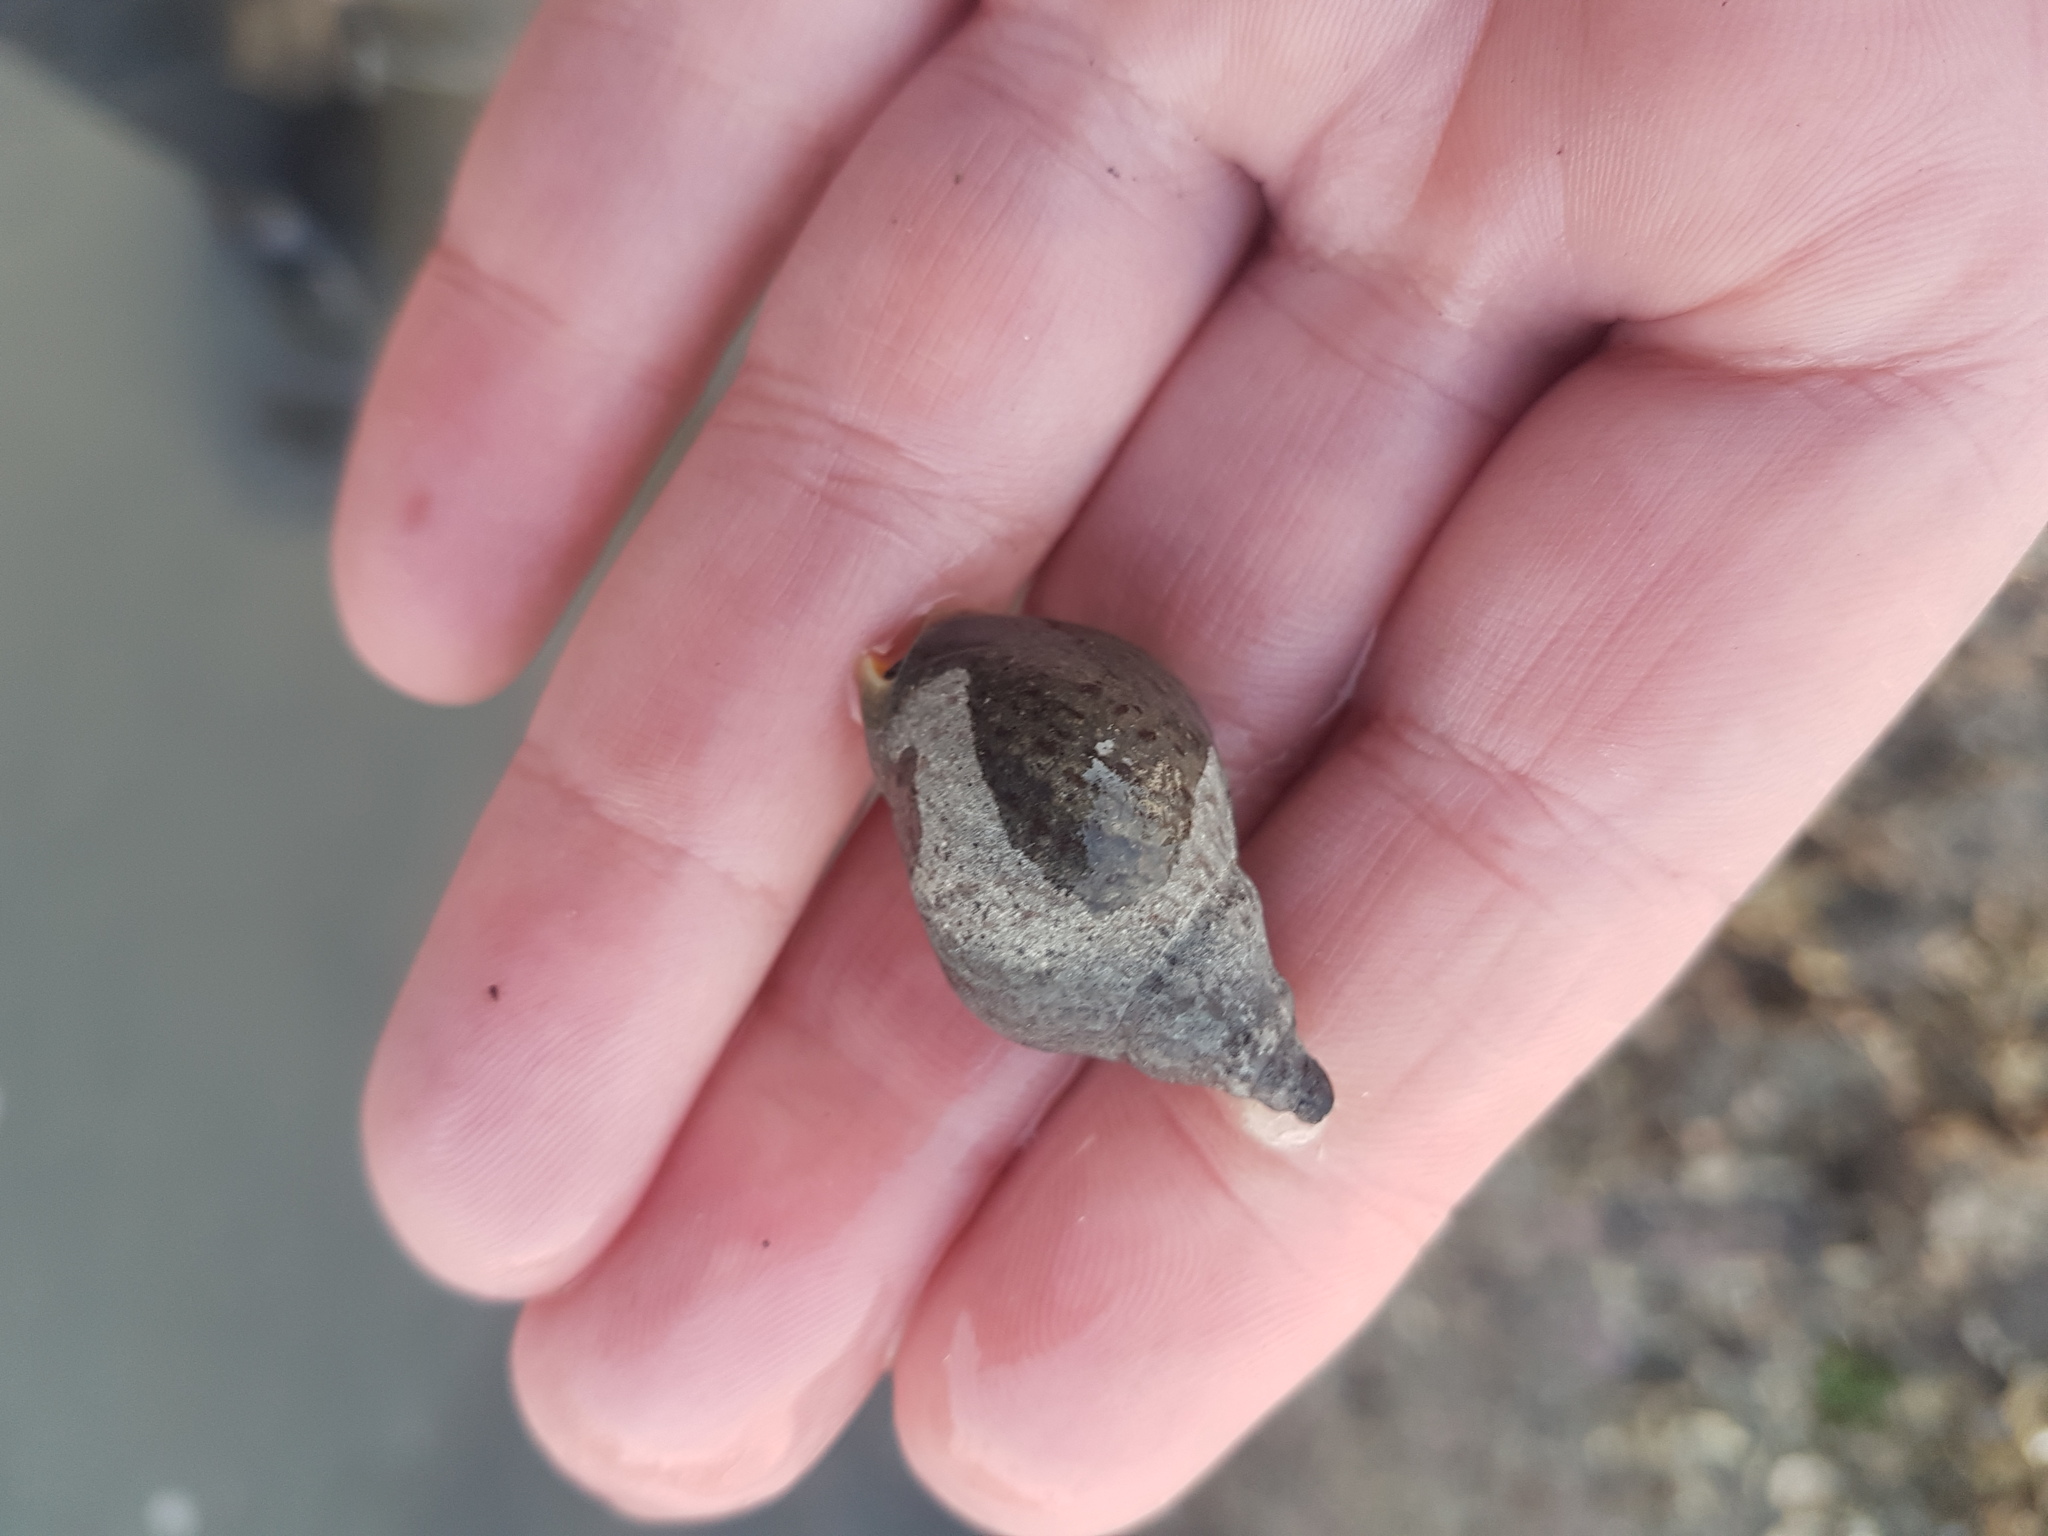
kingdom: Animalia
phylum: Mollusca
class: Gastropoda
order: Neogastropoda
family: Cominellidae
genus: Cominella
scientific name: Cominella adspersa
